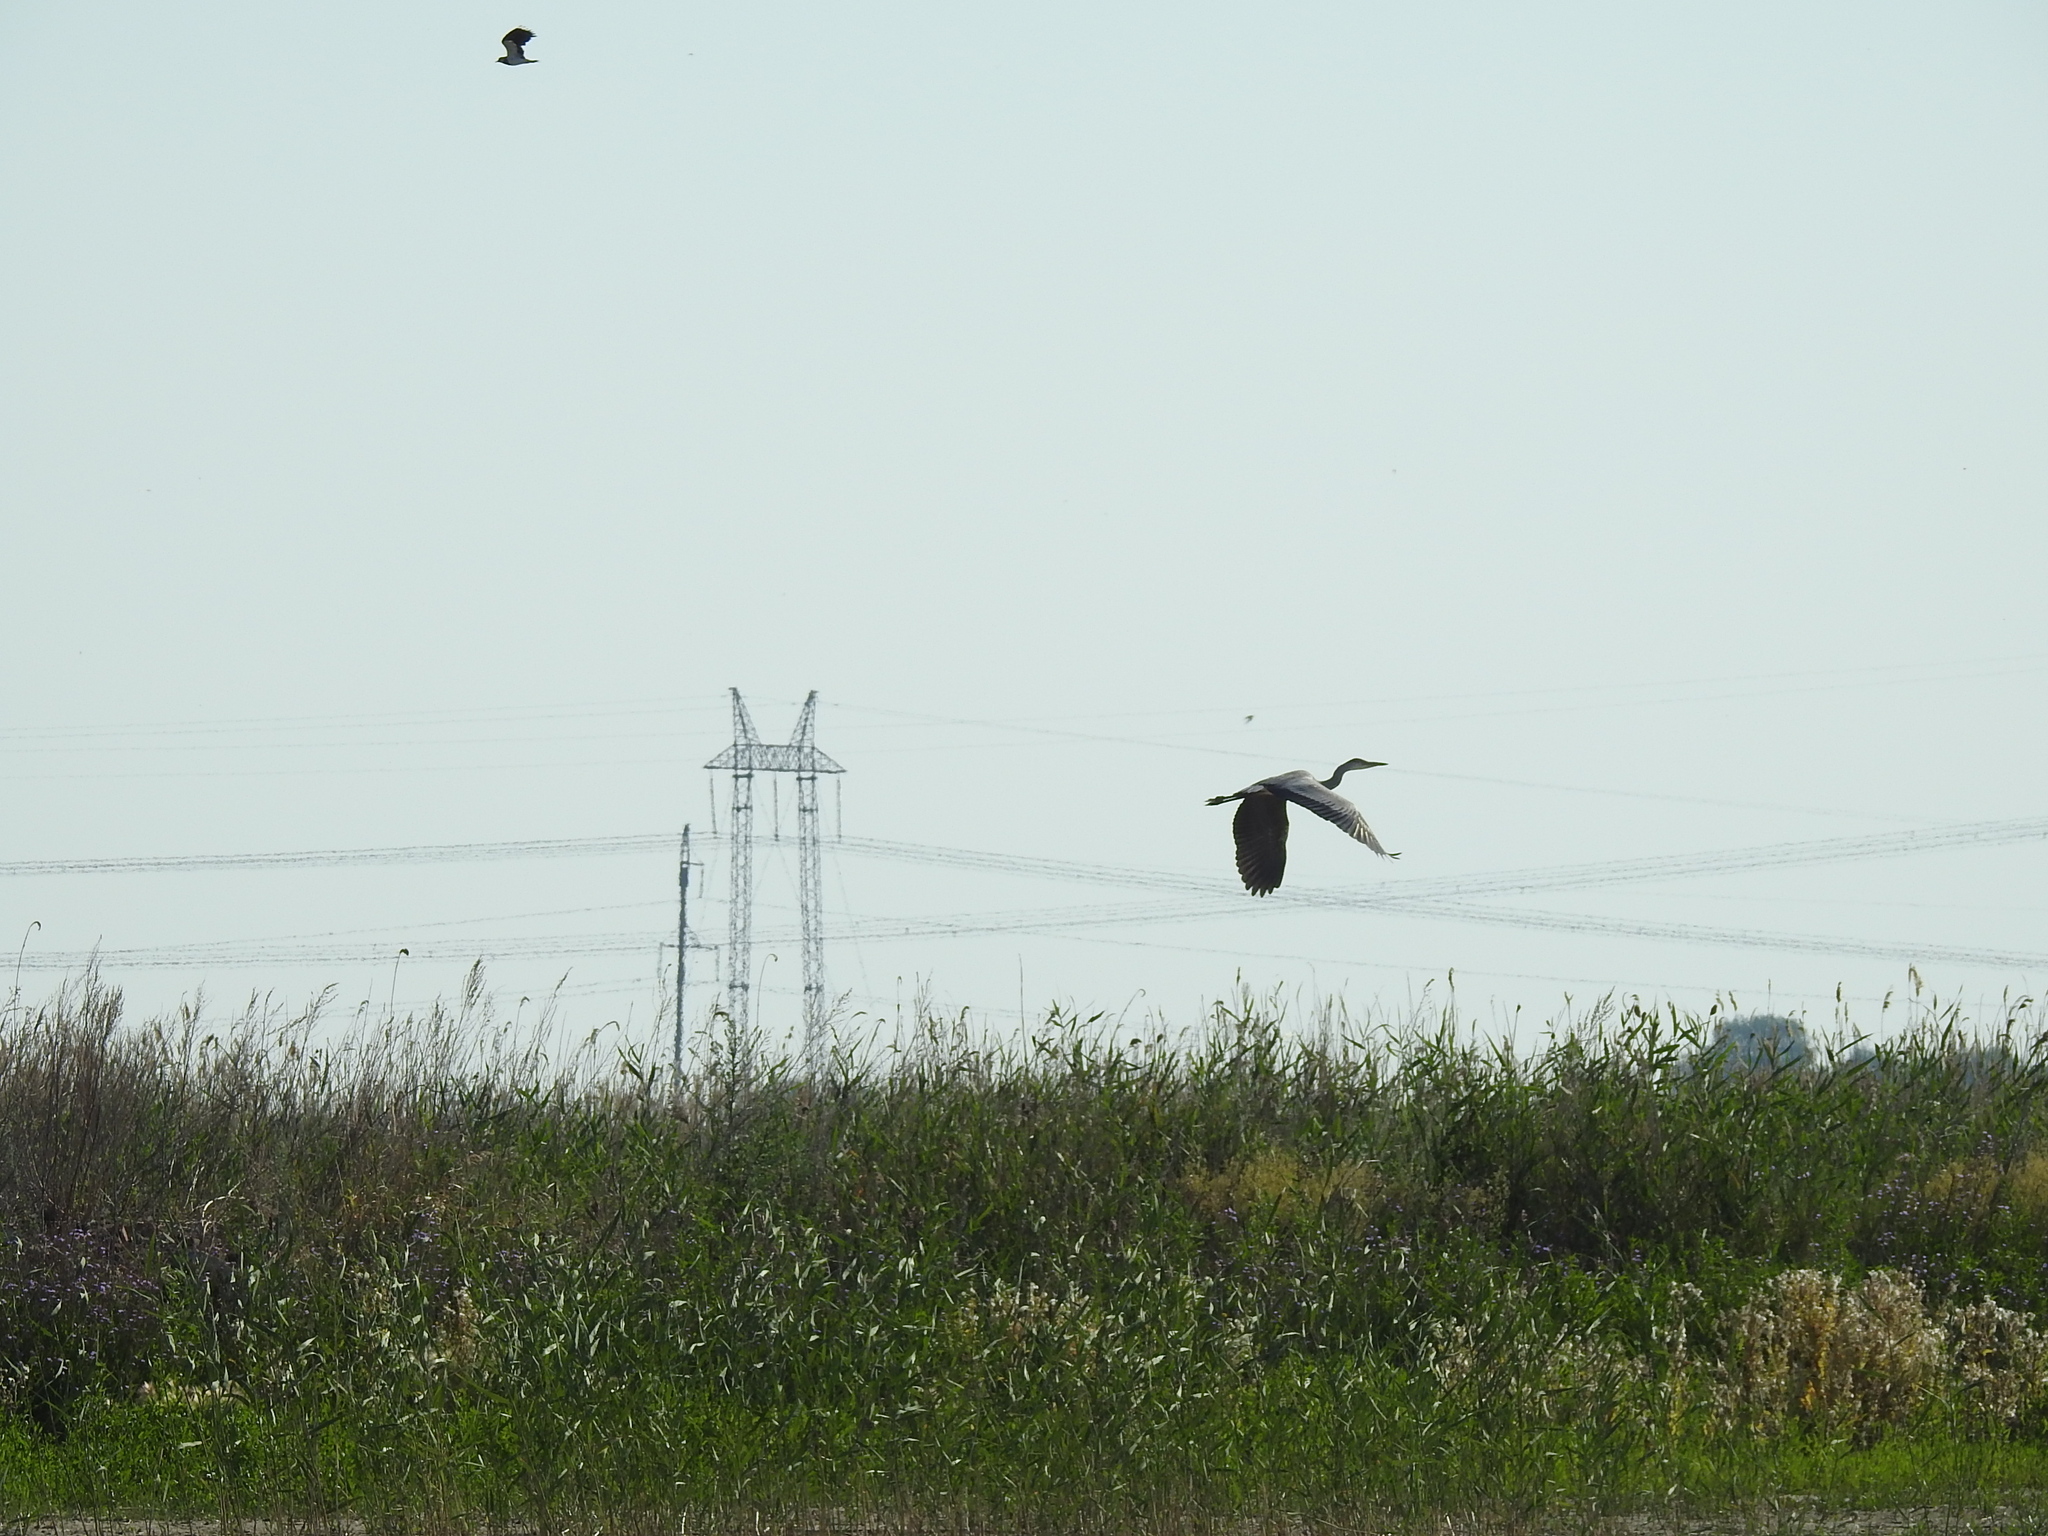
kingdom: Animalia
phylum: Chordata
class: Aves
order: Pelecaniformes
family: Ardeidae
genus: Ardea
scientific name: Ardea cinerea
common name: Grey heron
